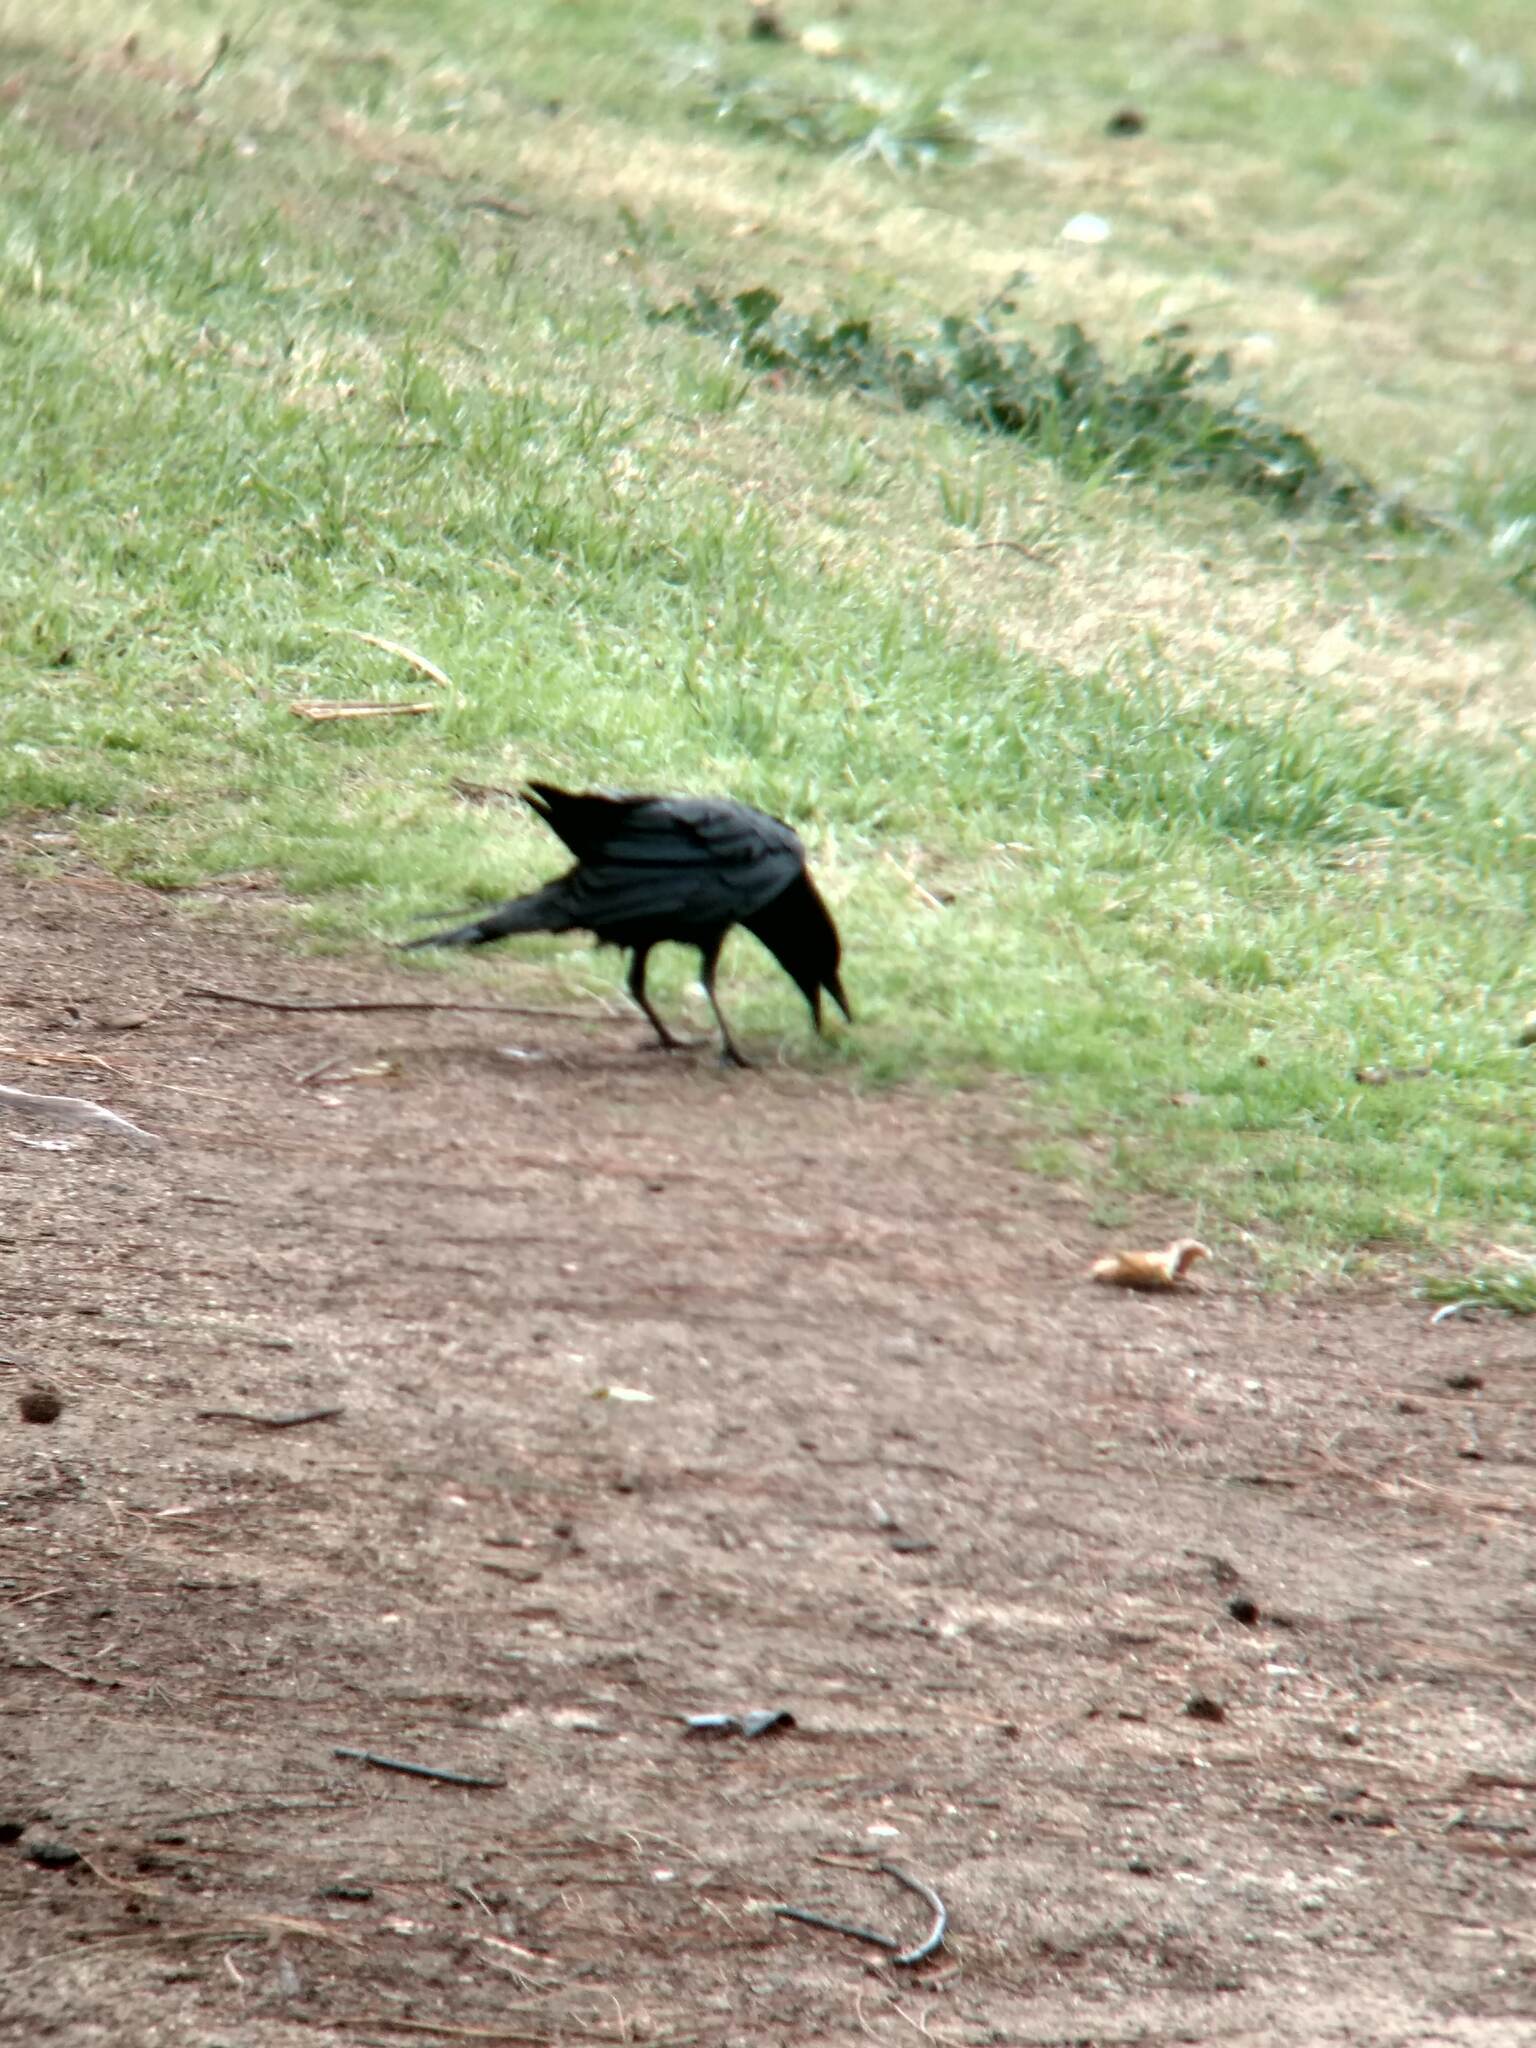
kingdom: Animalia
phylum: Chordata
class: Aves
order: Passeriformes
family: Corvidae
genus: Corvus
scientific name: Corvus brachyrhynchos
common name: American crow
